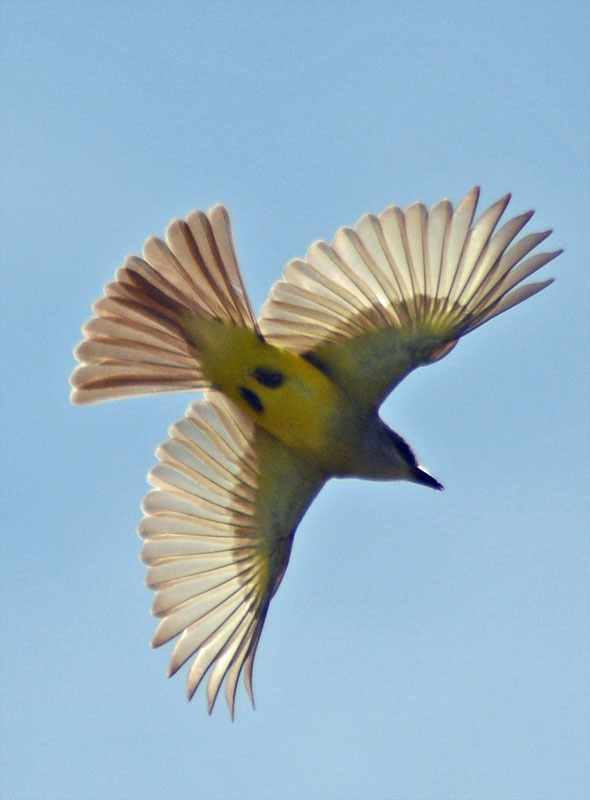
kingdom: Animalia
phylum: Chordata
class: Aves
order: Passeriformes
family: Tyrannidae
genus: Tyrannus
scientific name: Tyrannus melancholicus
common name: Tropical kingbird
